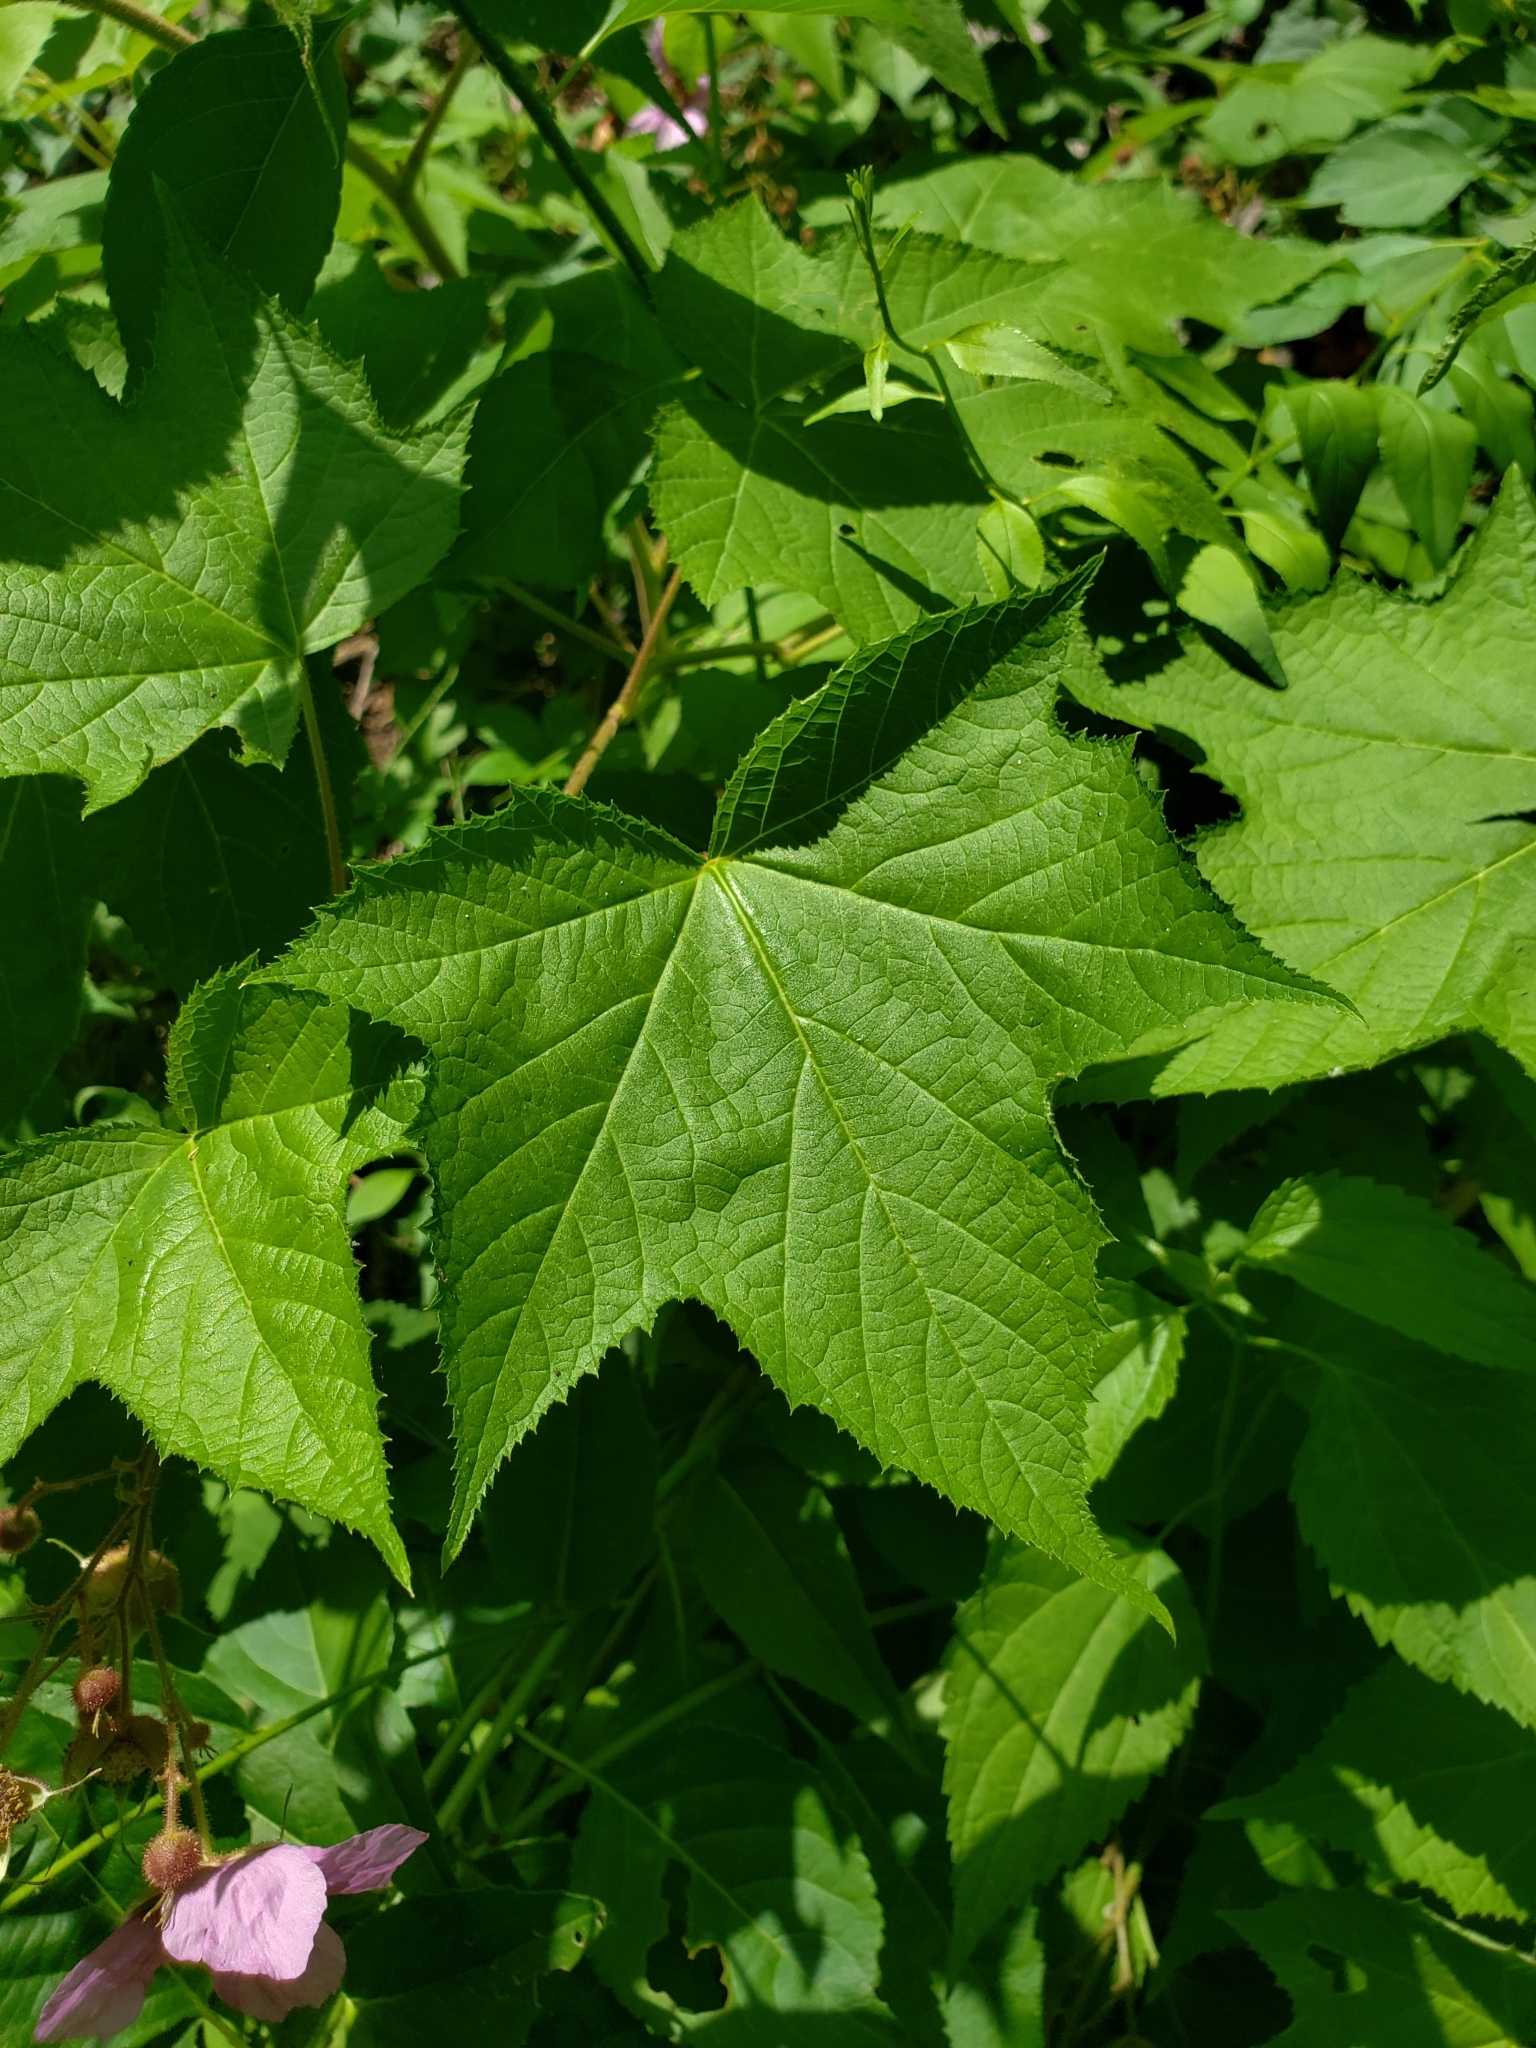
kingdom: Plantae
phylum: Tracheophyta
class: Magnoliopsida
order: Rosales
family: Rosaceae
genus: Rubus
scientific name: Rubus odoratus
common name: Purple-flowered raspberry
